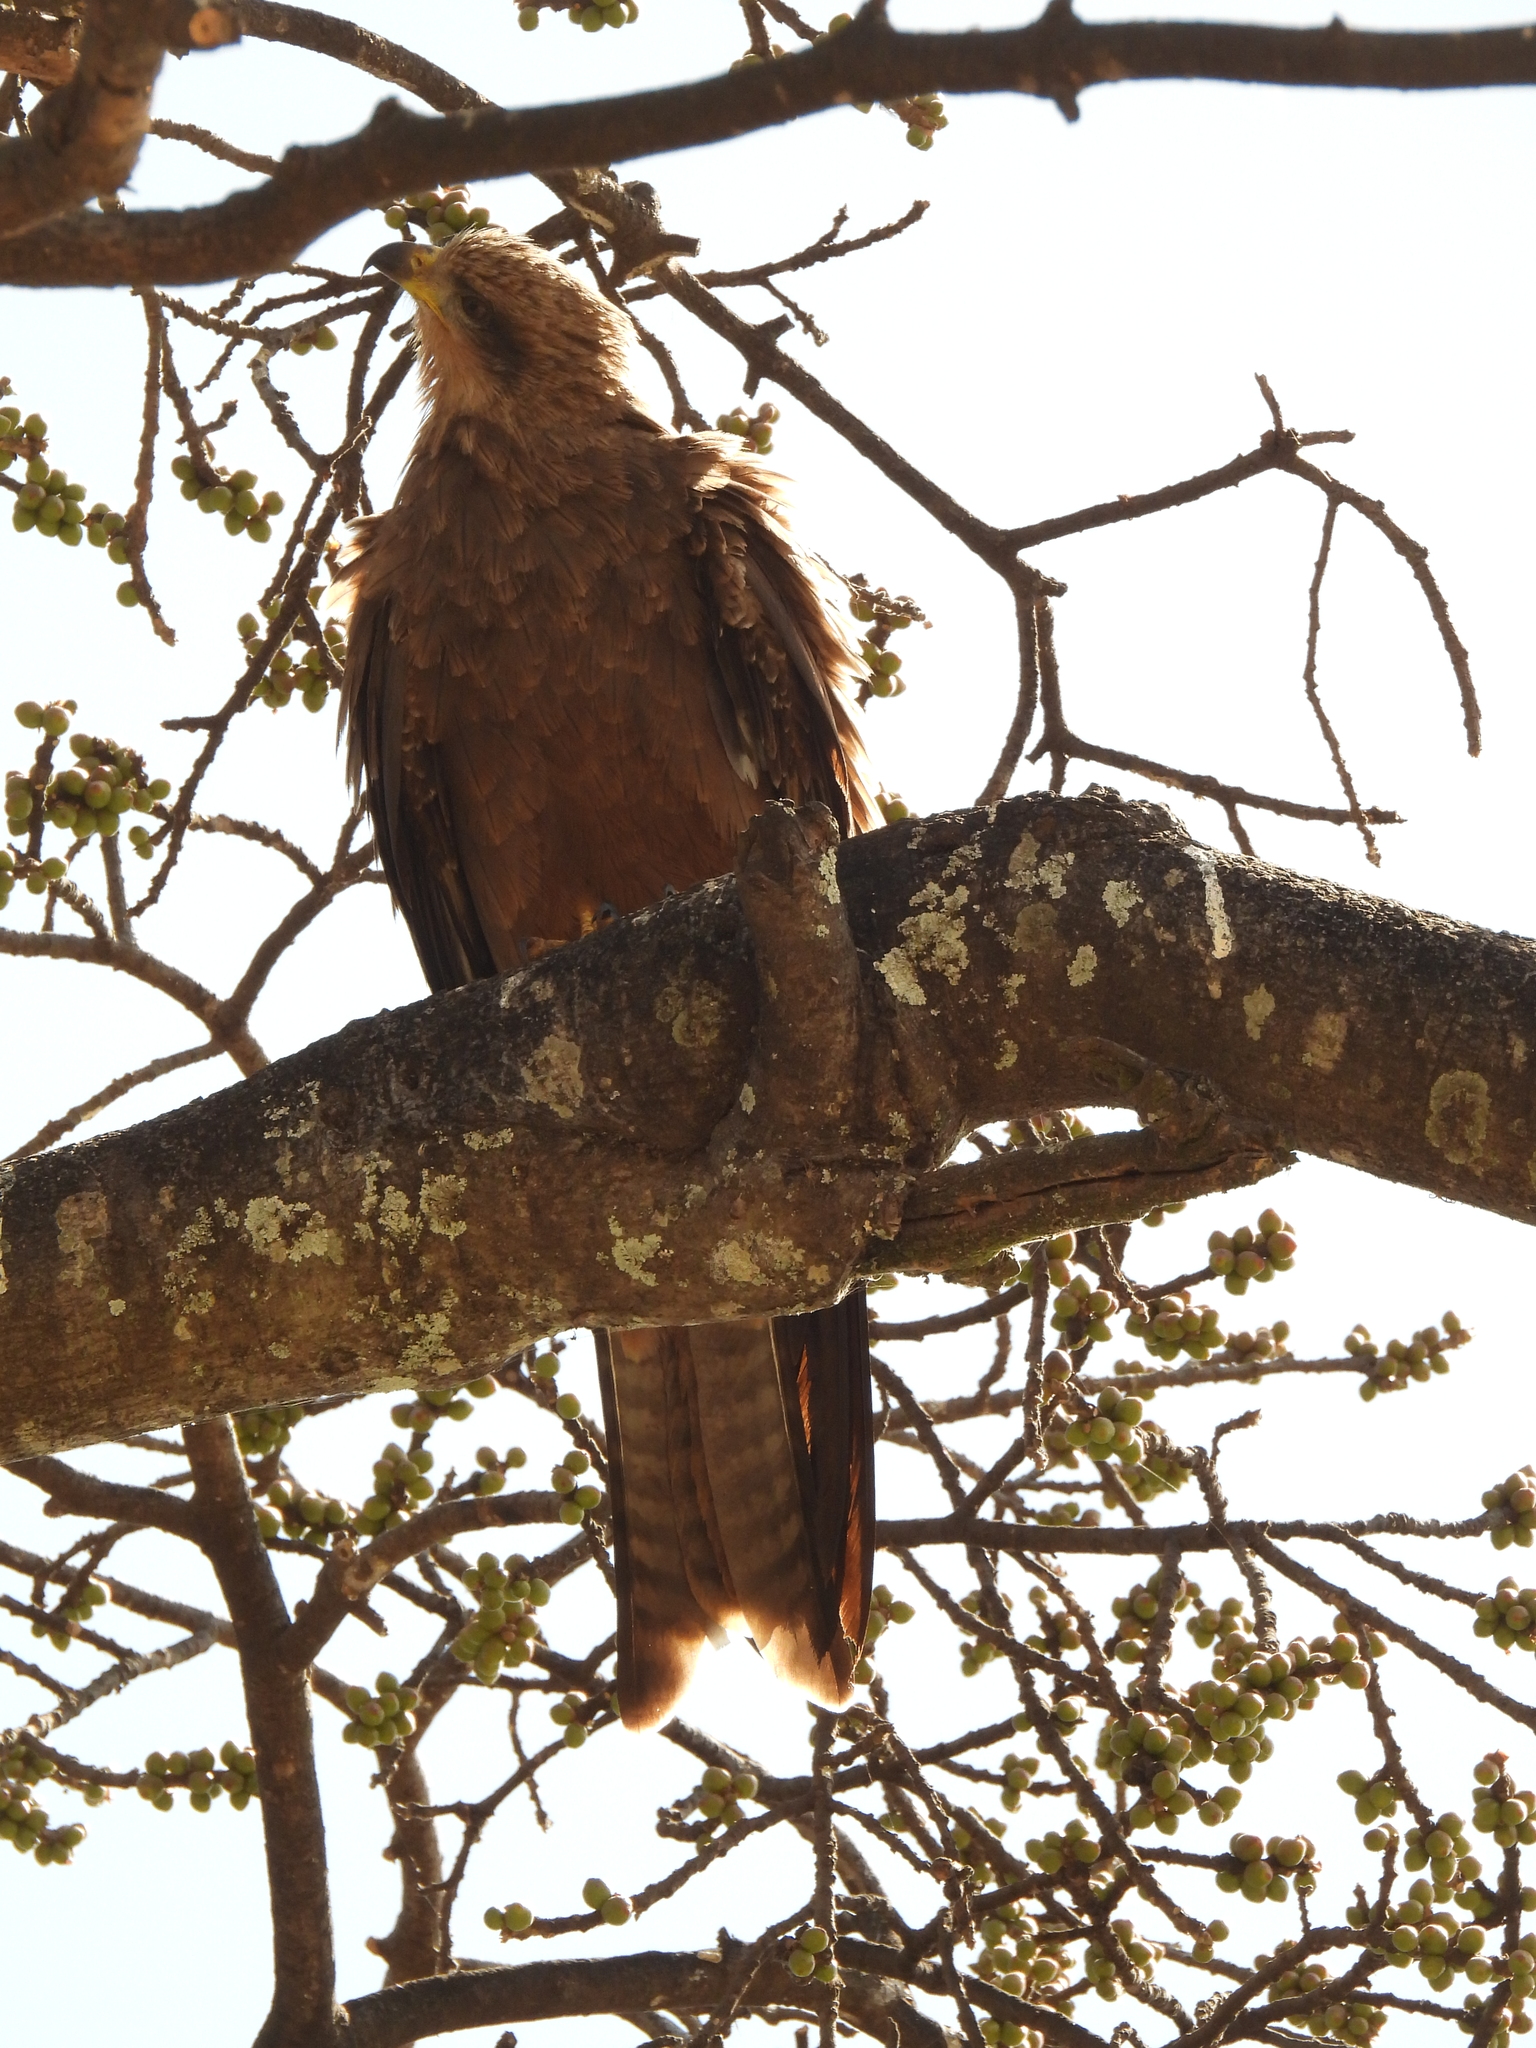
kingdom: Animalia
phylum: Chordata
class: Aves
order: Accipitriformes
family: Accipitridae
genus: Milvus
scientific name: Milvus migrans
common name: Black kite
